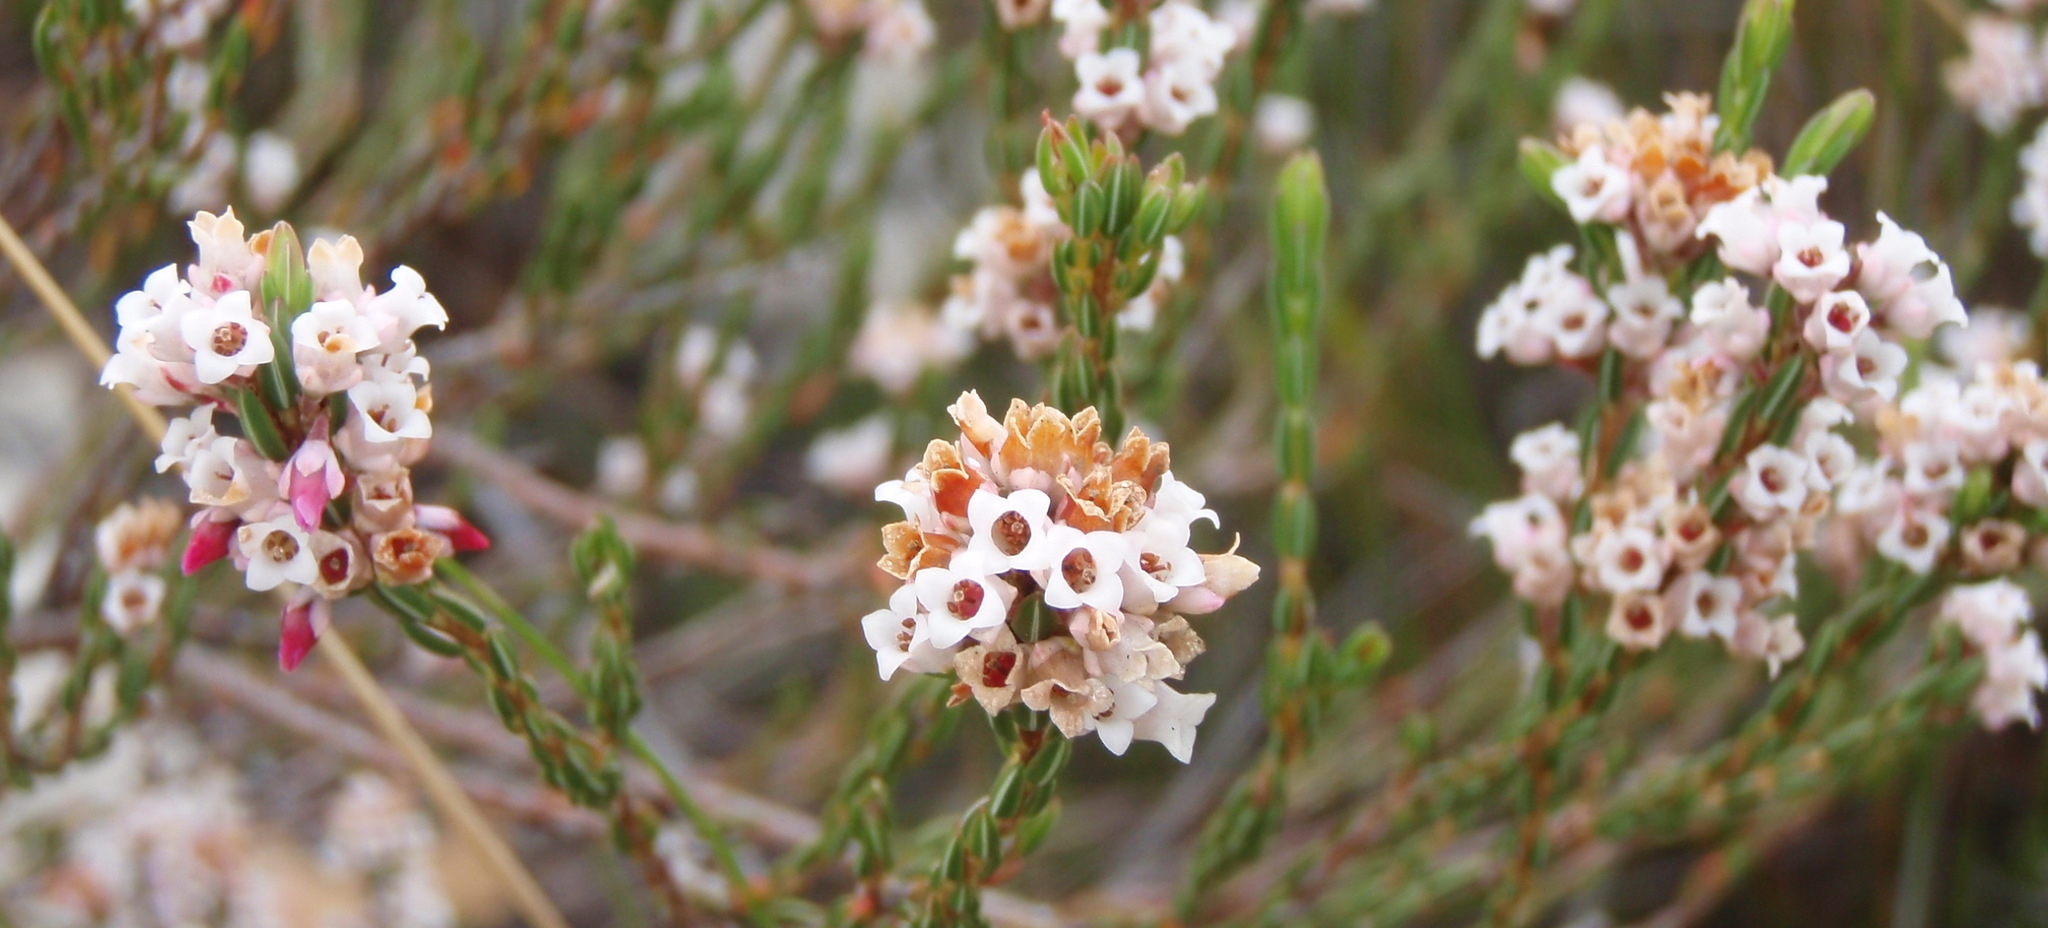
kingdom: Plantae
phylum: Tracheophyta
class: Magnoliopsida
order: Ericales
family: Ericaceae
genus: Erica
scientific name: Erica articularis
